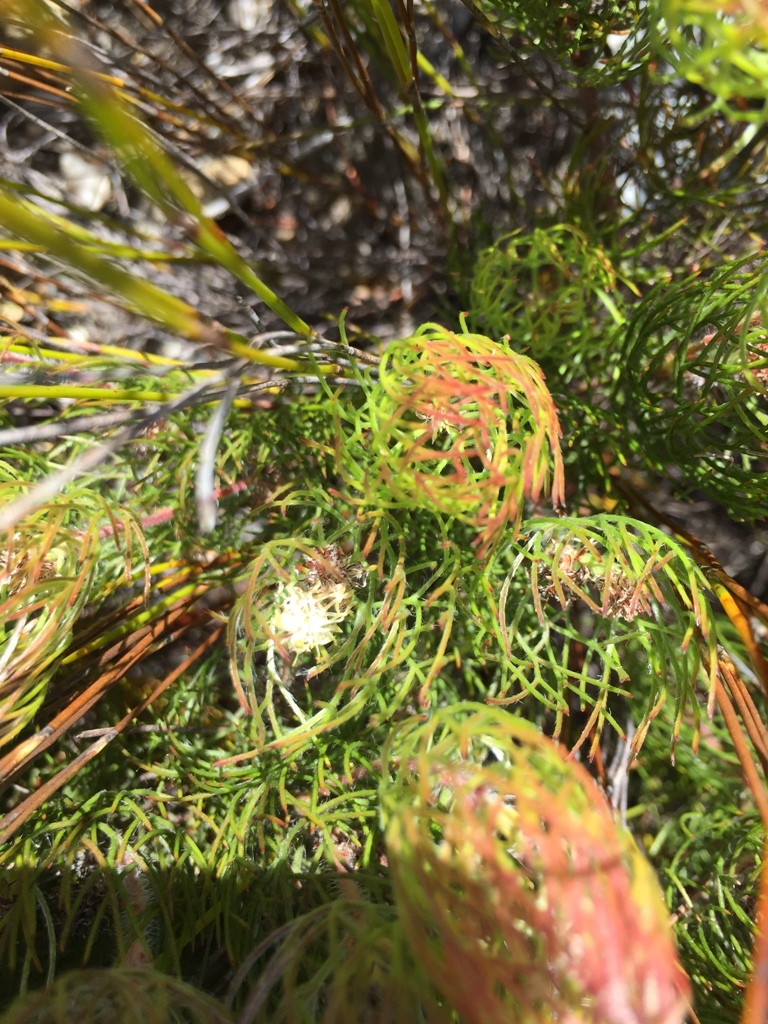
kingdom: Plantae
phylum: Tracheophyta
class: Magnoliopsida
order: Proteales
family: Proteaceae
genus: Serruria
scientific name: Serruria inconspicua
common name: Cryptic spiderhead
